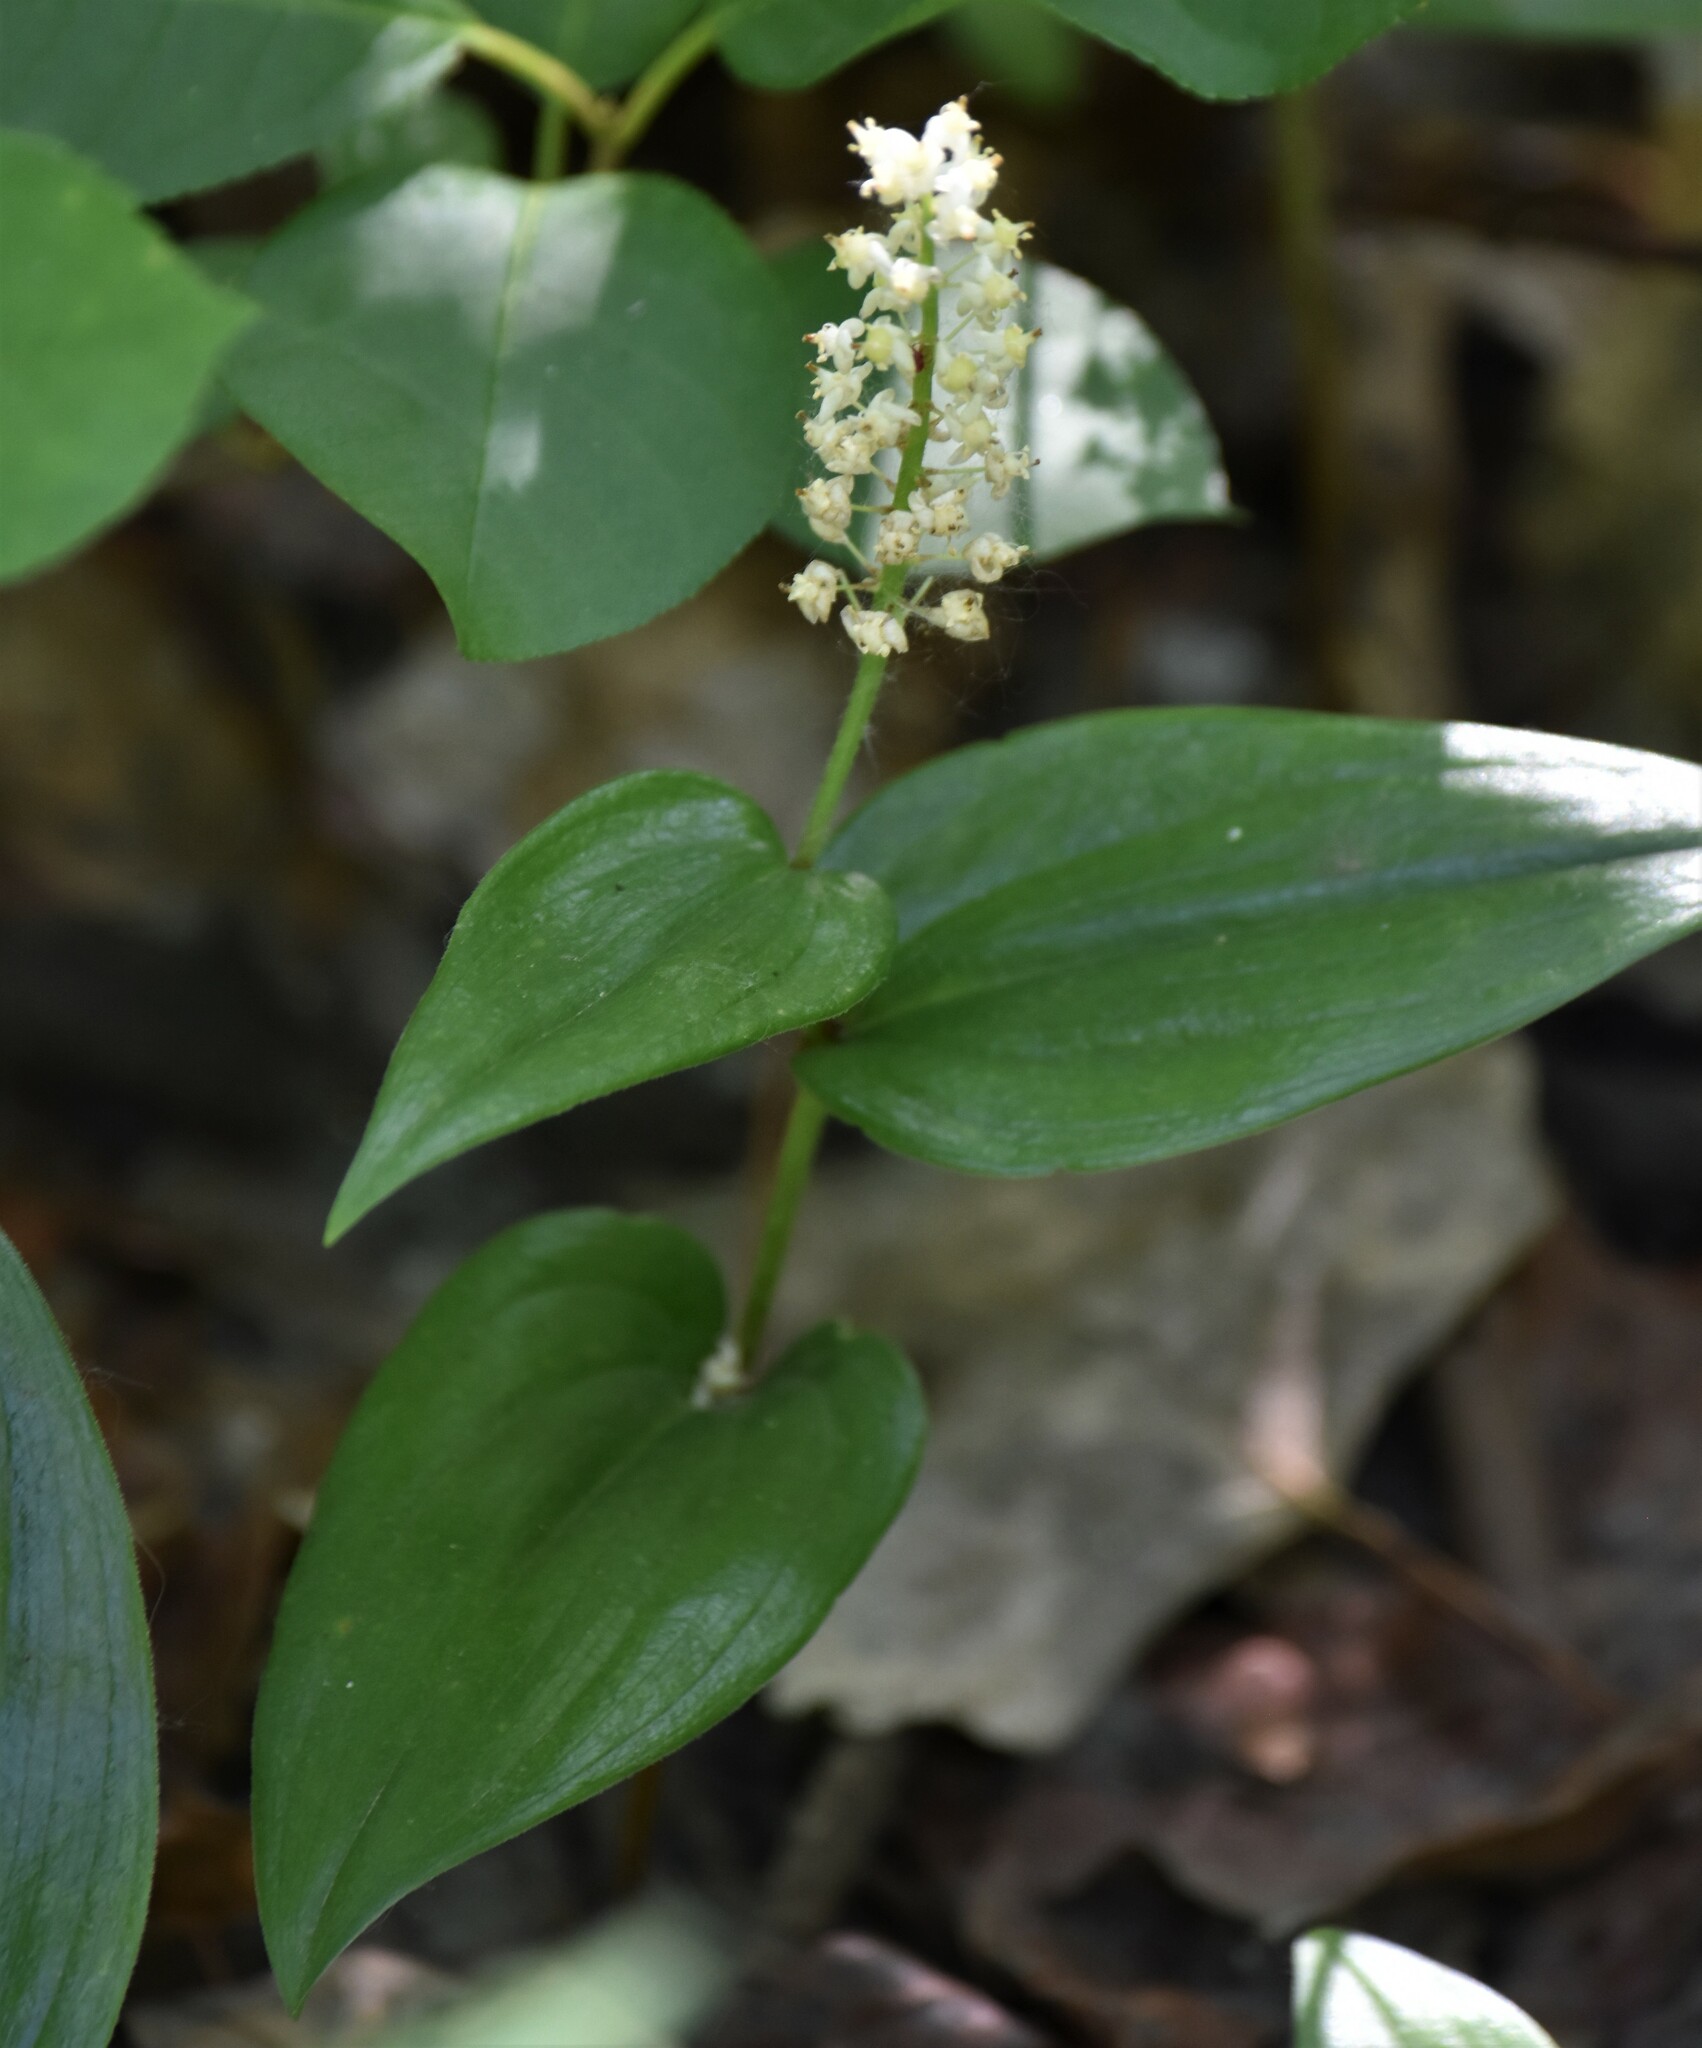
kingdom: Plantae
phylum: Tracheophyta
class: Liliopsida
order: Asparagales
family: Asparagaceae
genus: Maianthemum
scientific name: Maianthemum canadense
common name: False lily-of-the-valley
